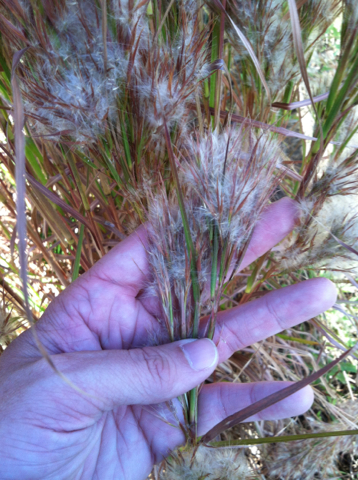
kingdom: Plantae
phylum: Tracheophyta
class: Liliopsida
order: Poales
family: Poaceae
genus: Andropogon
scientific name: Andropogon tenuispatheus
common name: Bushy bluestem
